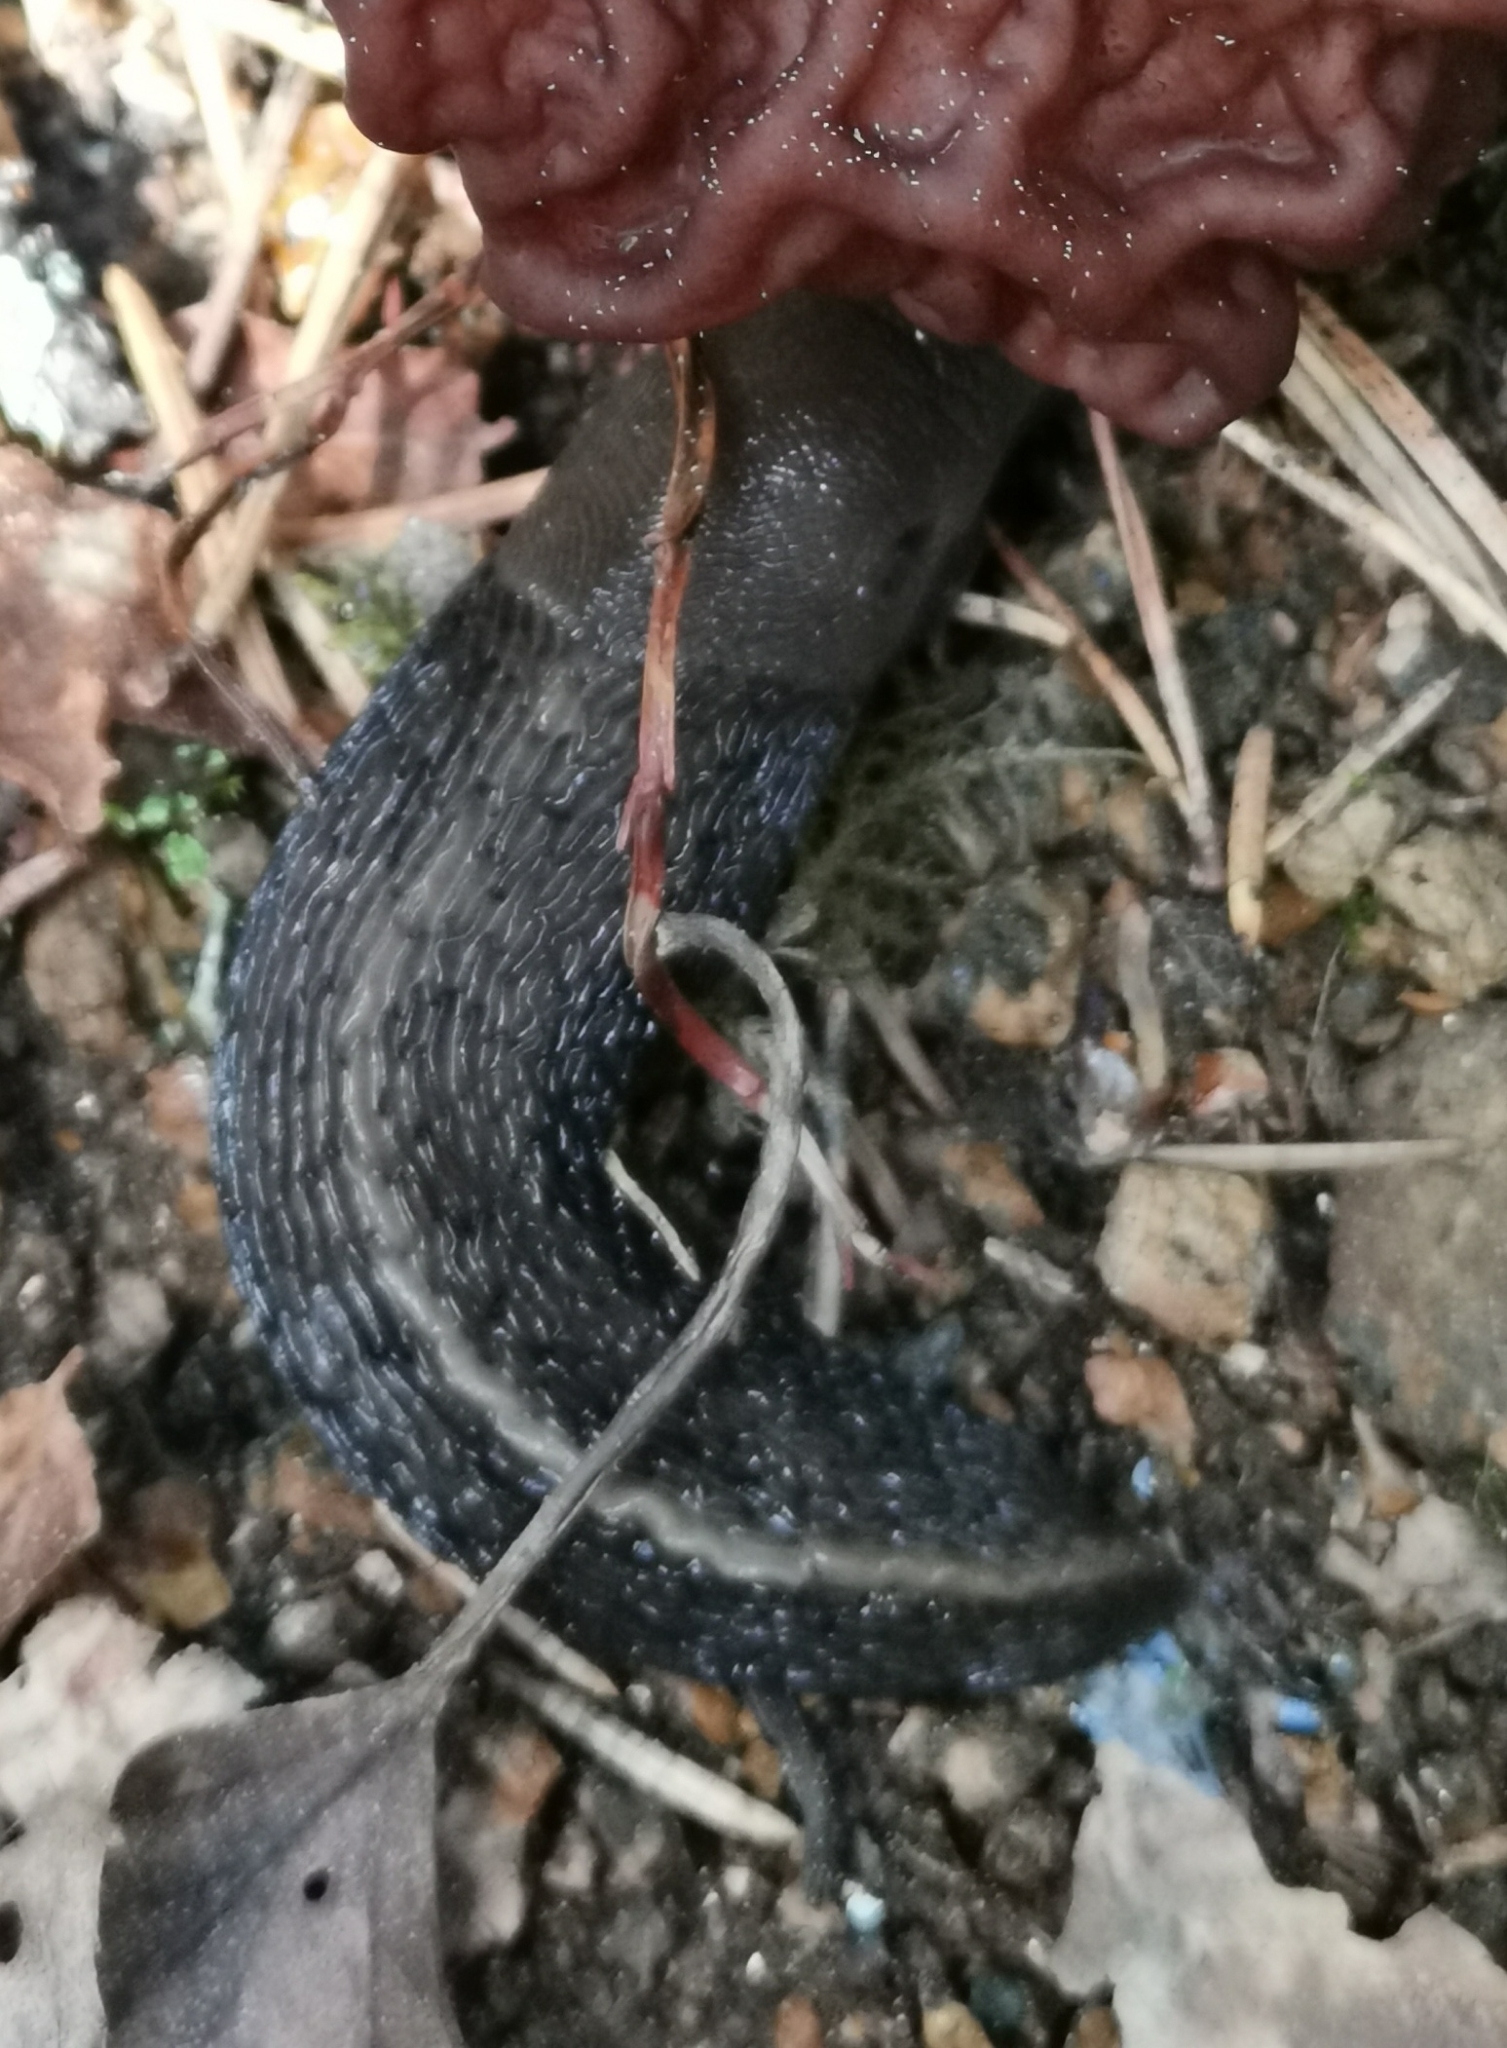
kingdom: Animalia
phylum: Mollusca
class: Gastropoda
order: Stylommatophora
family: Limacidae
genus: Limax
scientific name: Limax cinereoniger
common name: Ash-black slug
